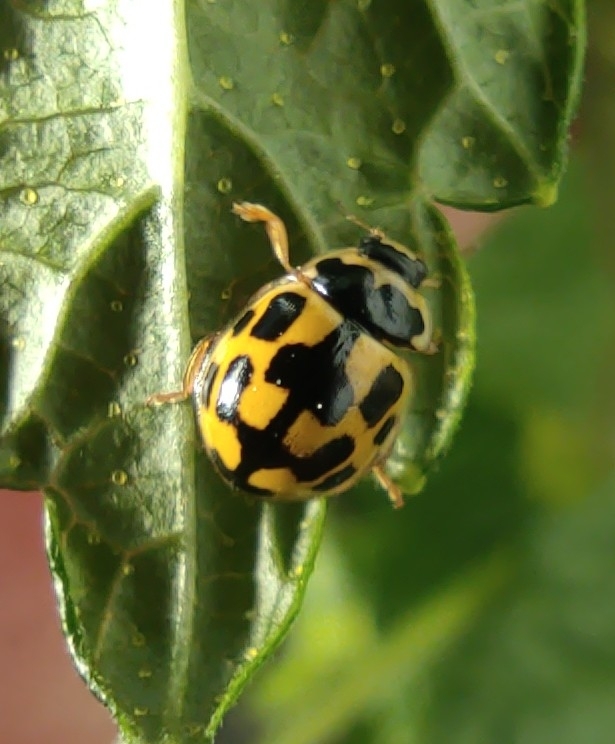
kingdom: Animalia
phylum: Arthropoda
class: Insecta
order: Coleoptera
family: Coccinellidae
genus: Propylaea
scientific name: Propylaea quatuordecimpunctata
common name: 14-spotted ladybird beetle
